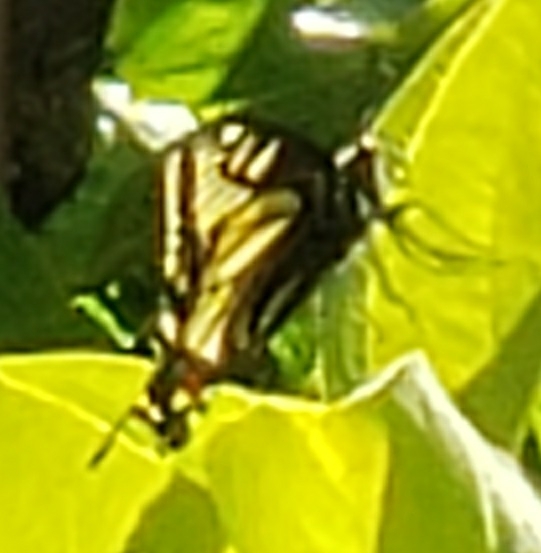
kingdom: Animalia
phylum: Arthropoda
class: Insecta
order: Lepidoptera
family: Papilionidae
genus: Papilio
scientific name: Papilio zelicaon
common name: Anise swallowtail
